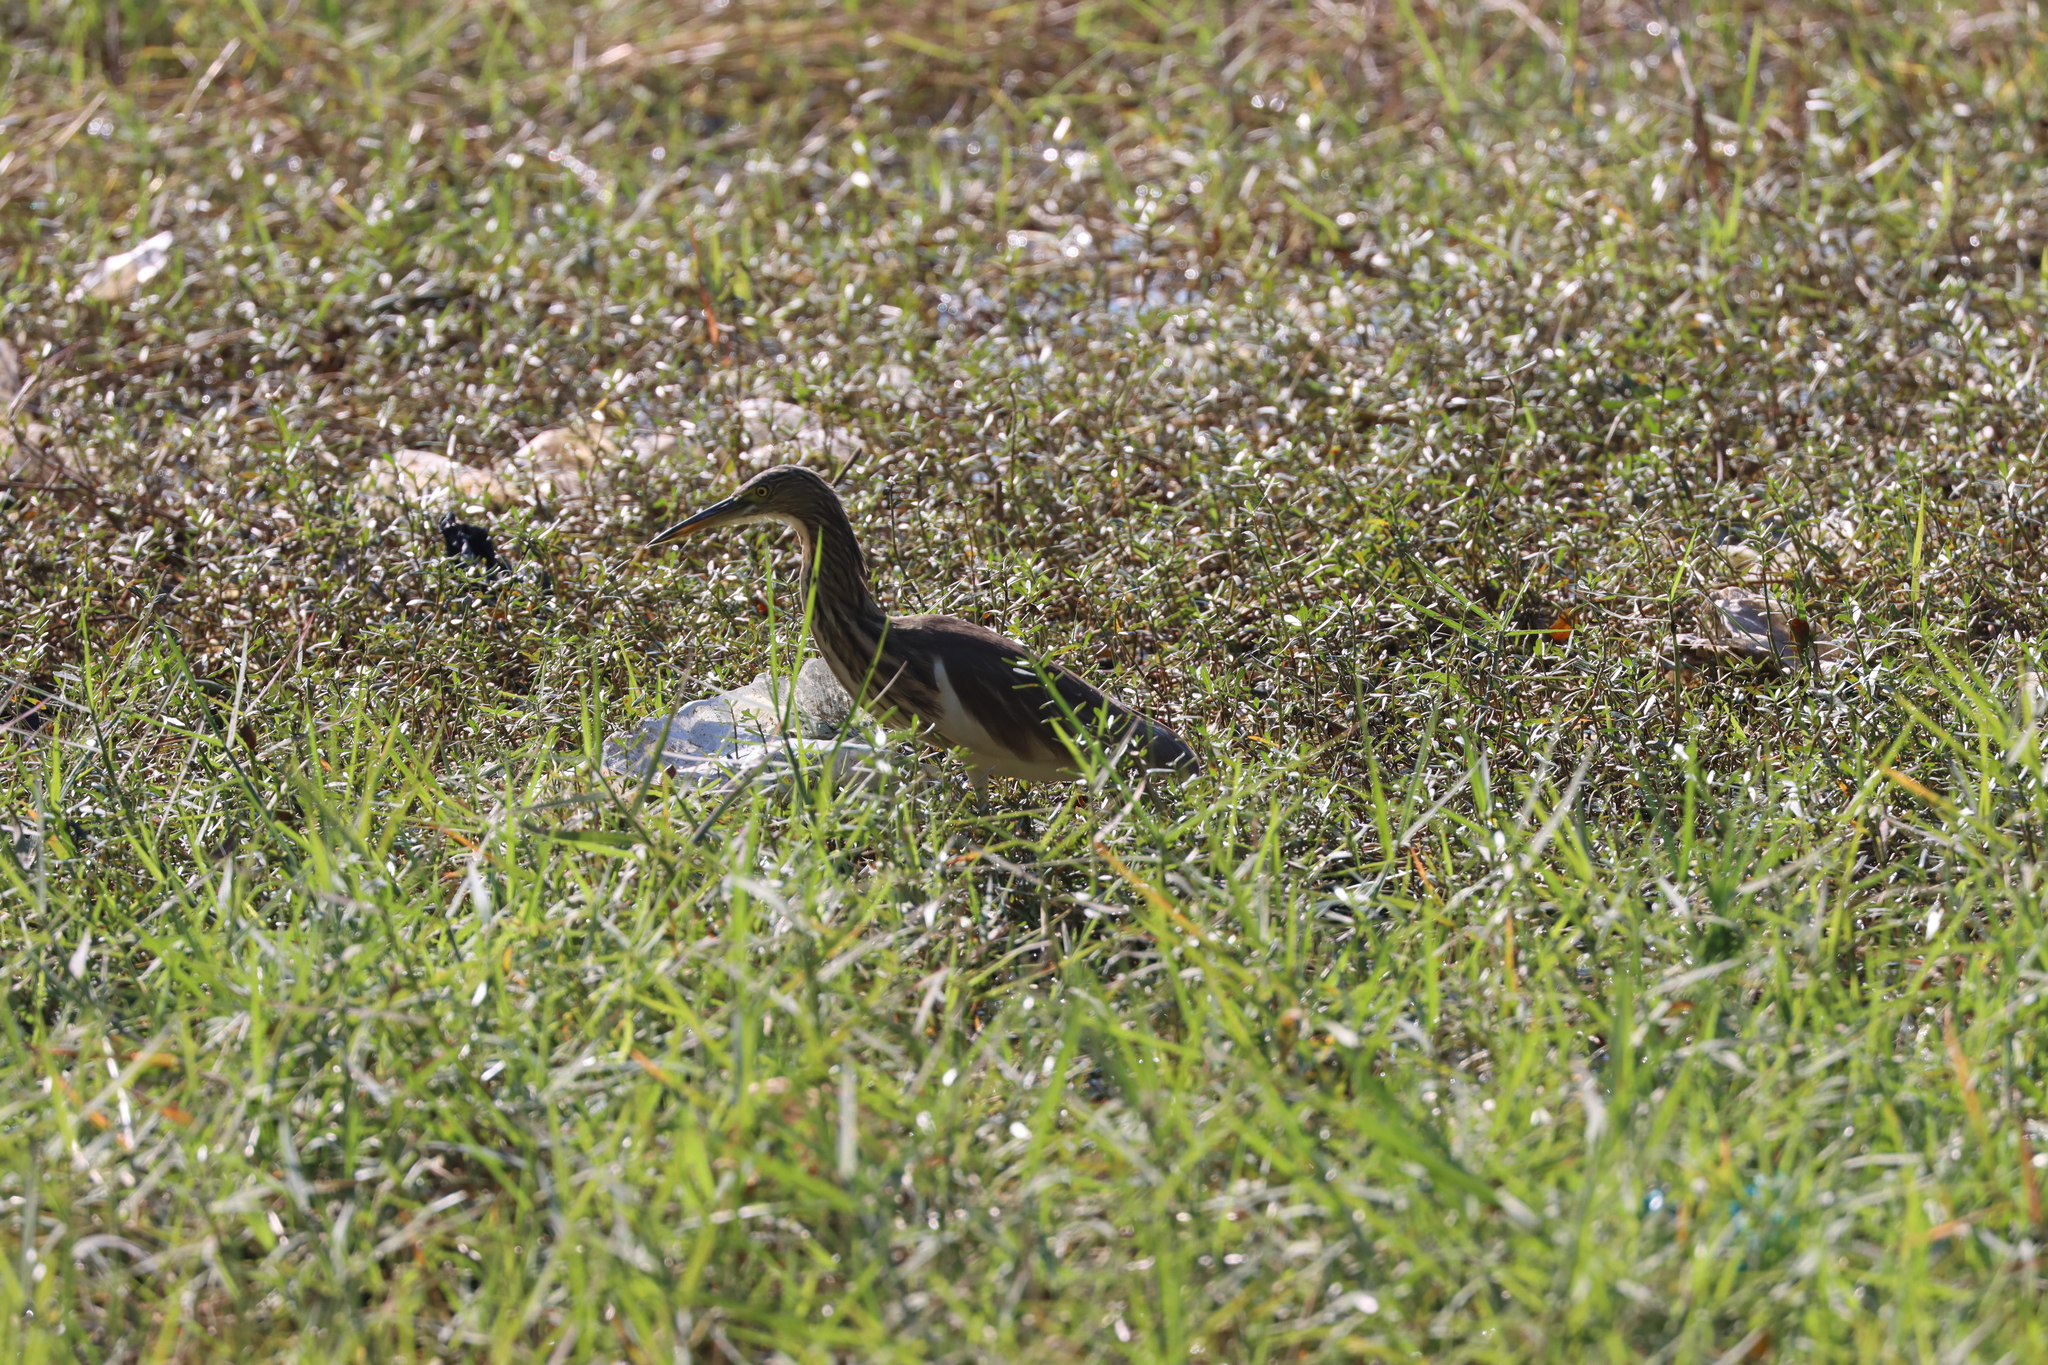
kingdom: Animalia
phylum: Chordata
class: Aves
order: Pelecaniformes
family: Ardeidae
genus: Ardeola
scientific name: Ardeola grayii
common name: Indian pond heron
